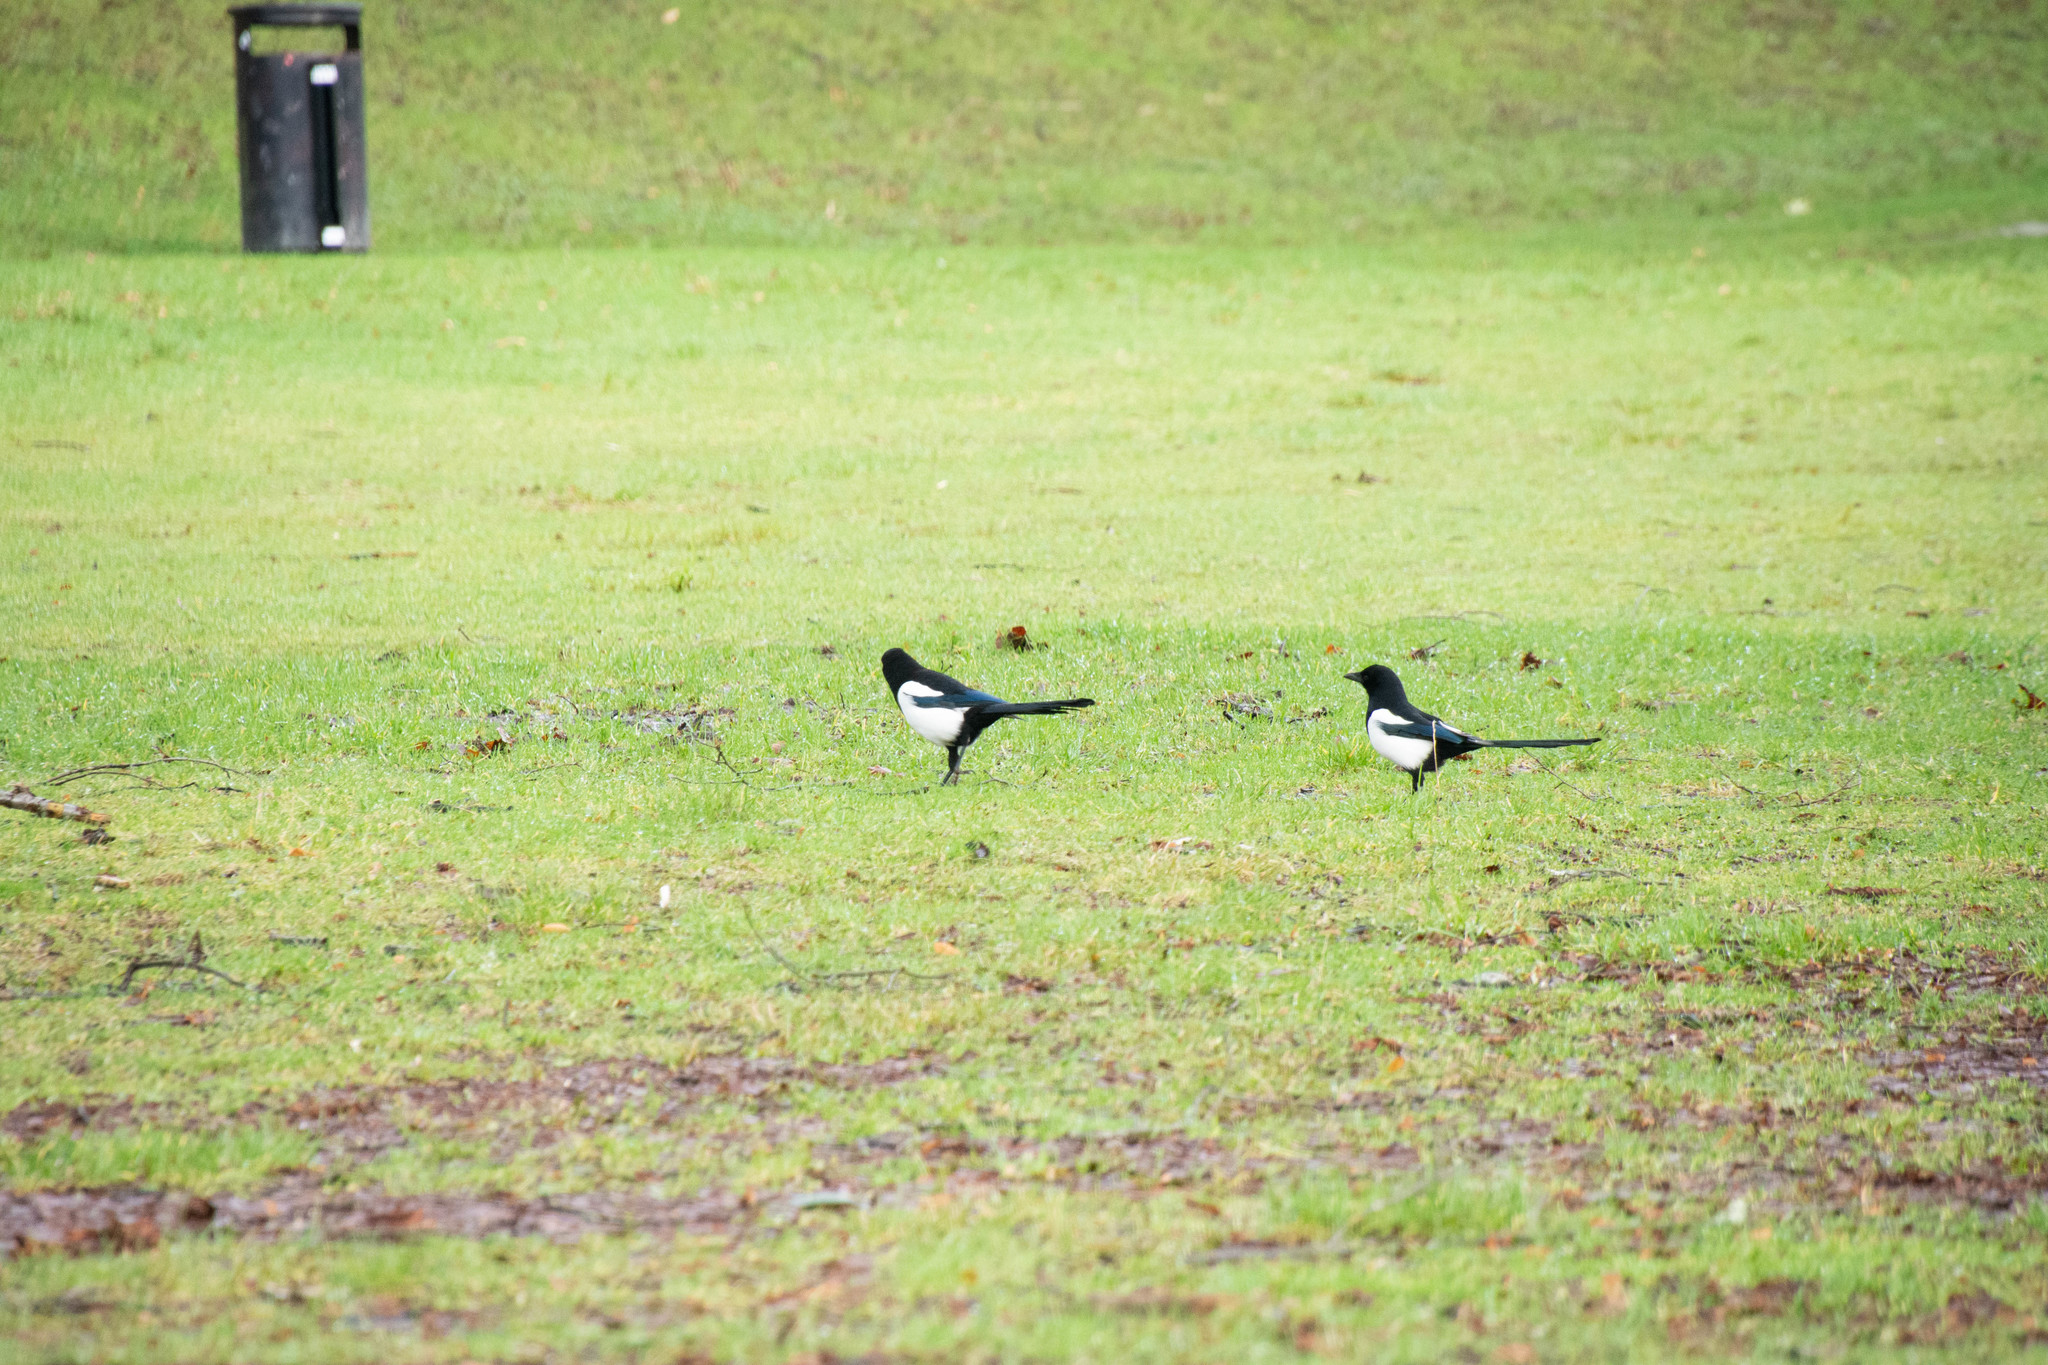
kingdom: Animalia
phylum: Chordata
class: Aves
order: Passeriformes
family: Corvidae
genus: Pica
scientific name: Pica pica
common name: Eurasian magpie
